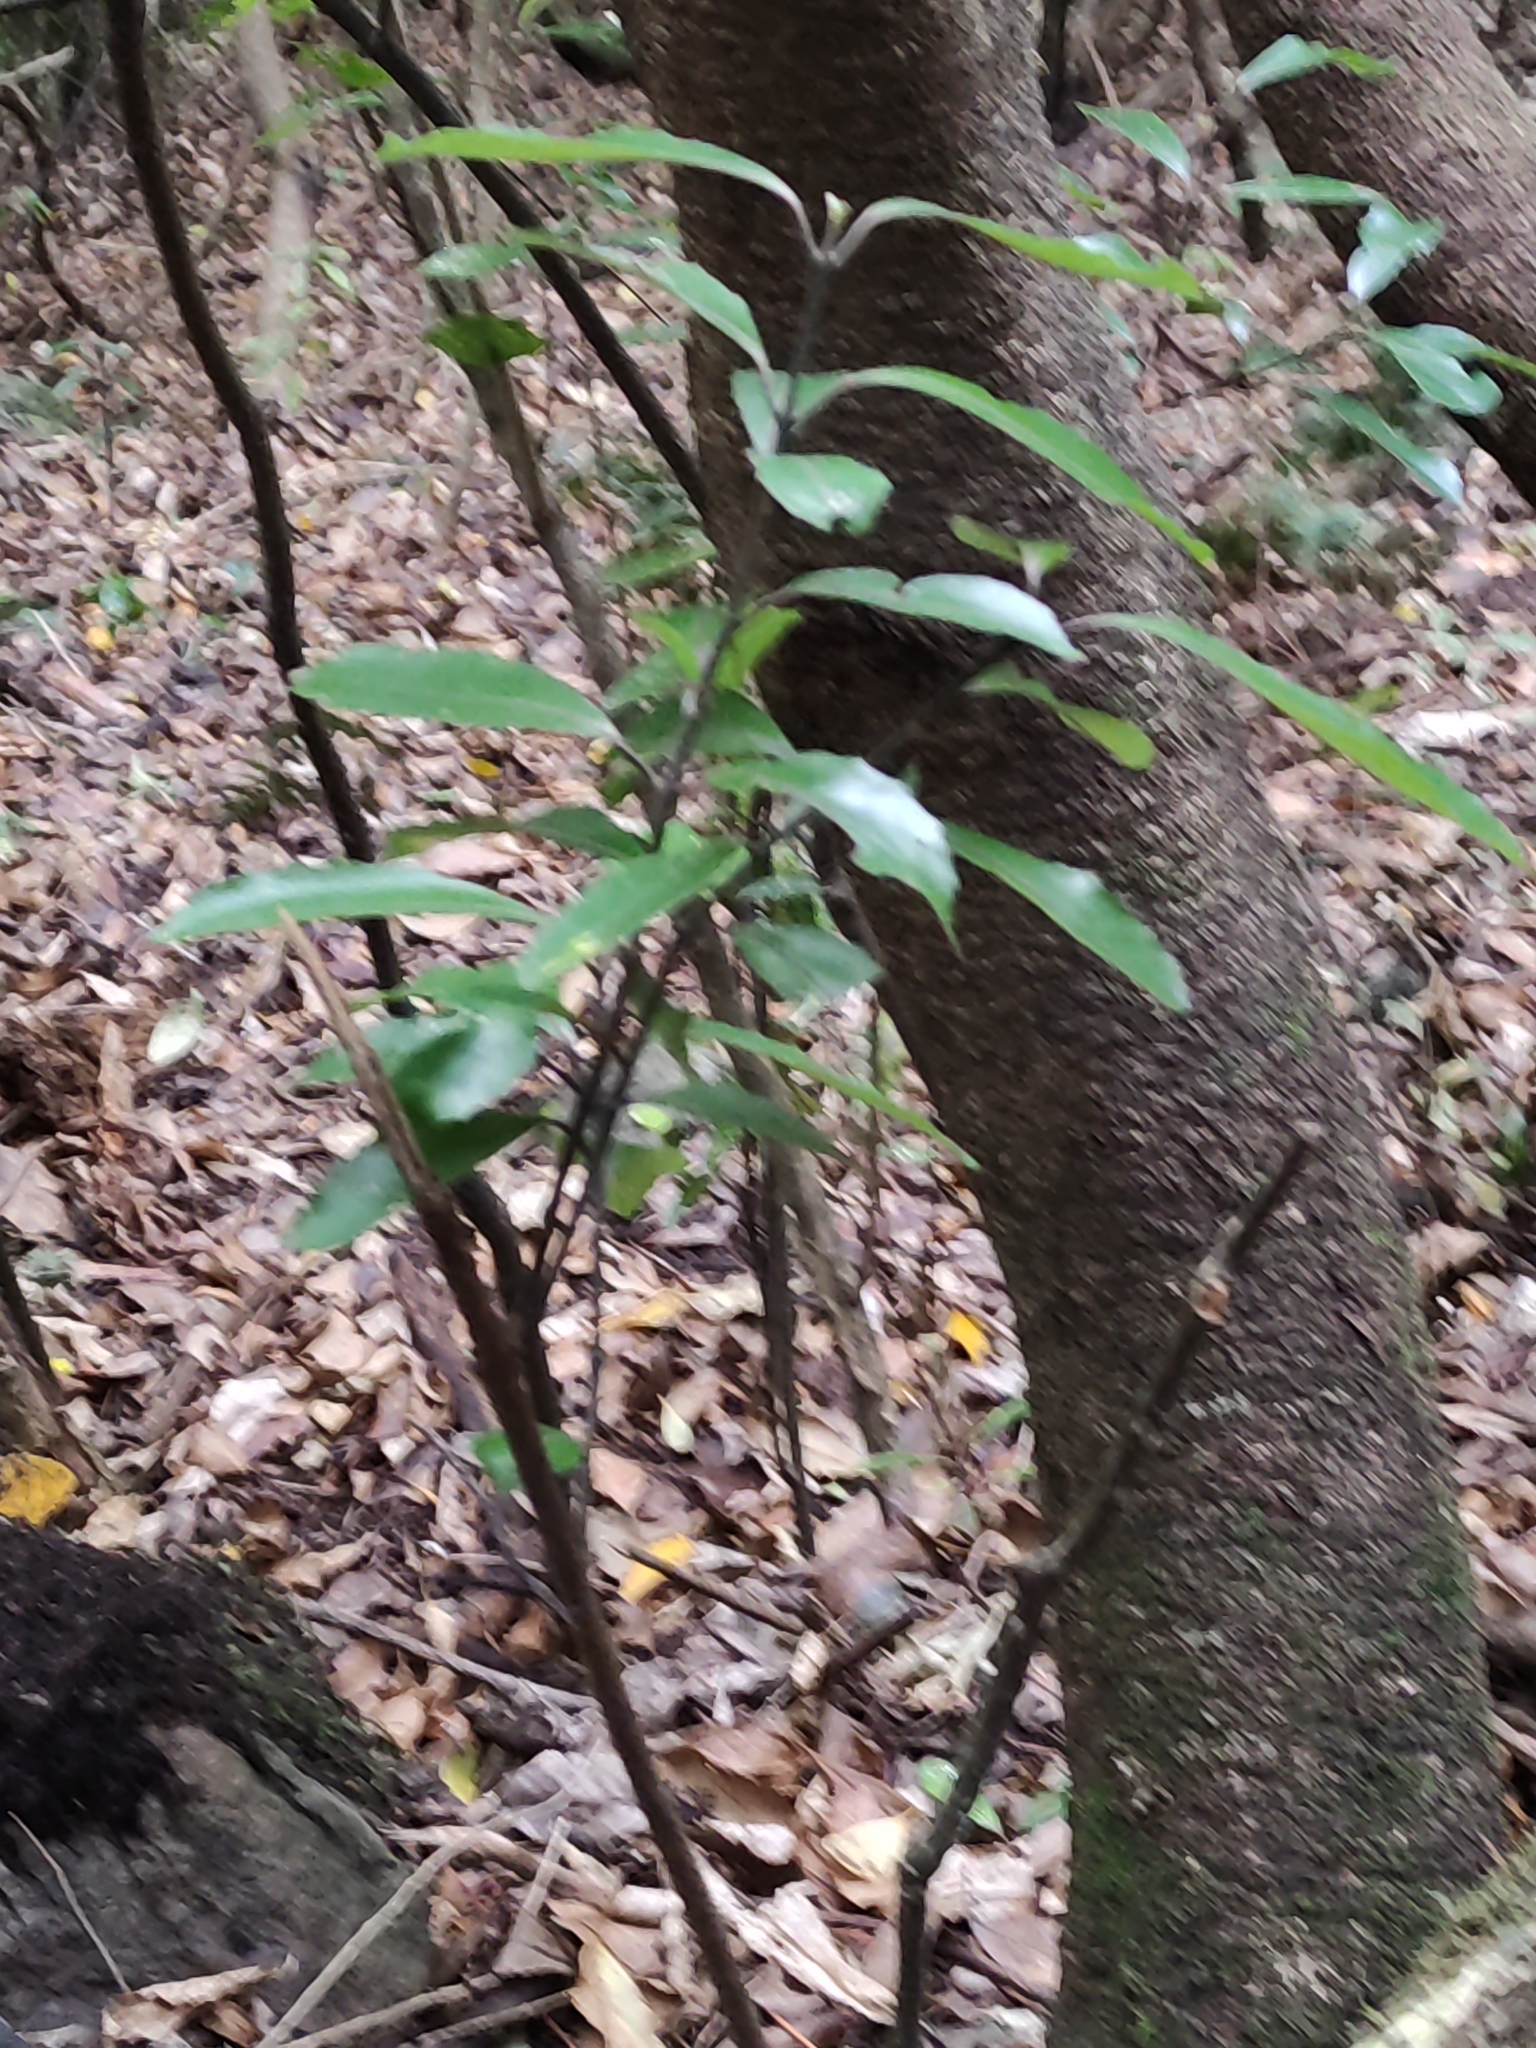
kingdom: Plantae
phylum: Tracheophyta
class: Magnoliopsida
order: Laurales
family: Monimiaceae
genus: Hedycarya
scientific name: Hedycarya arborea
